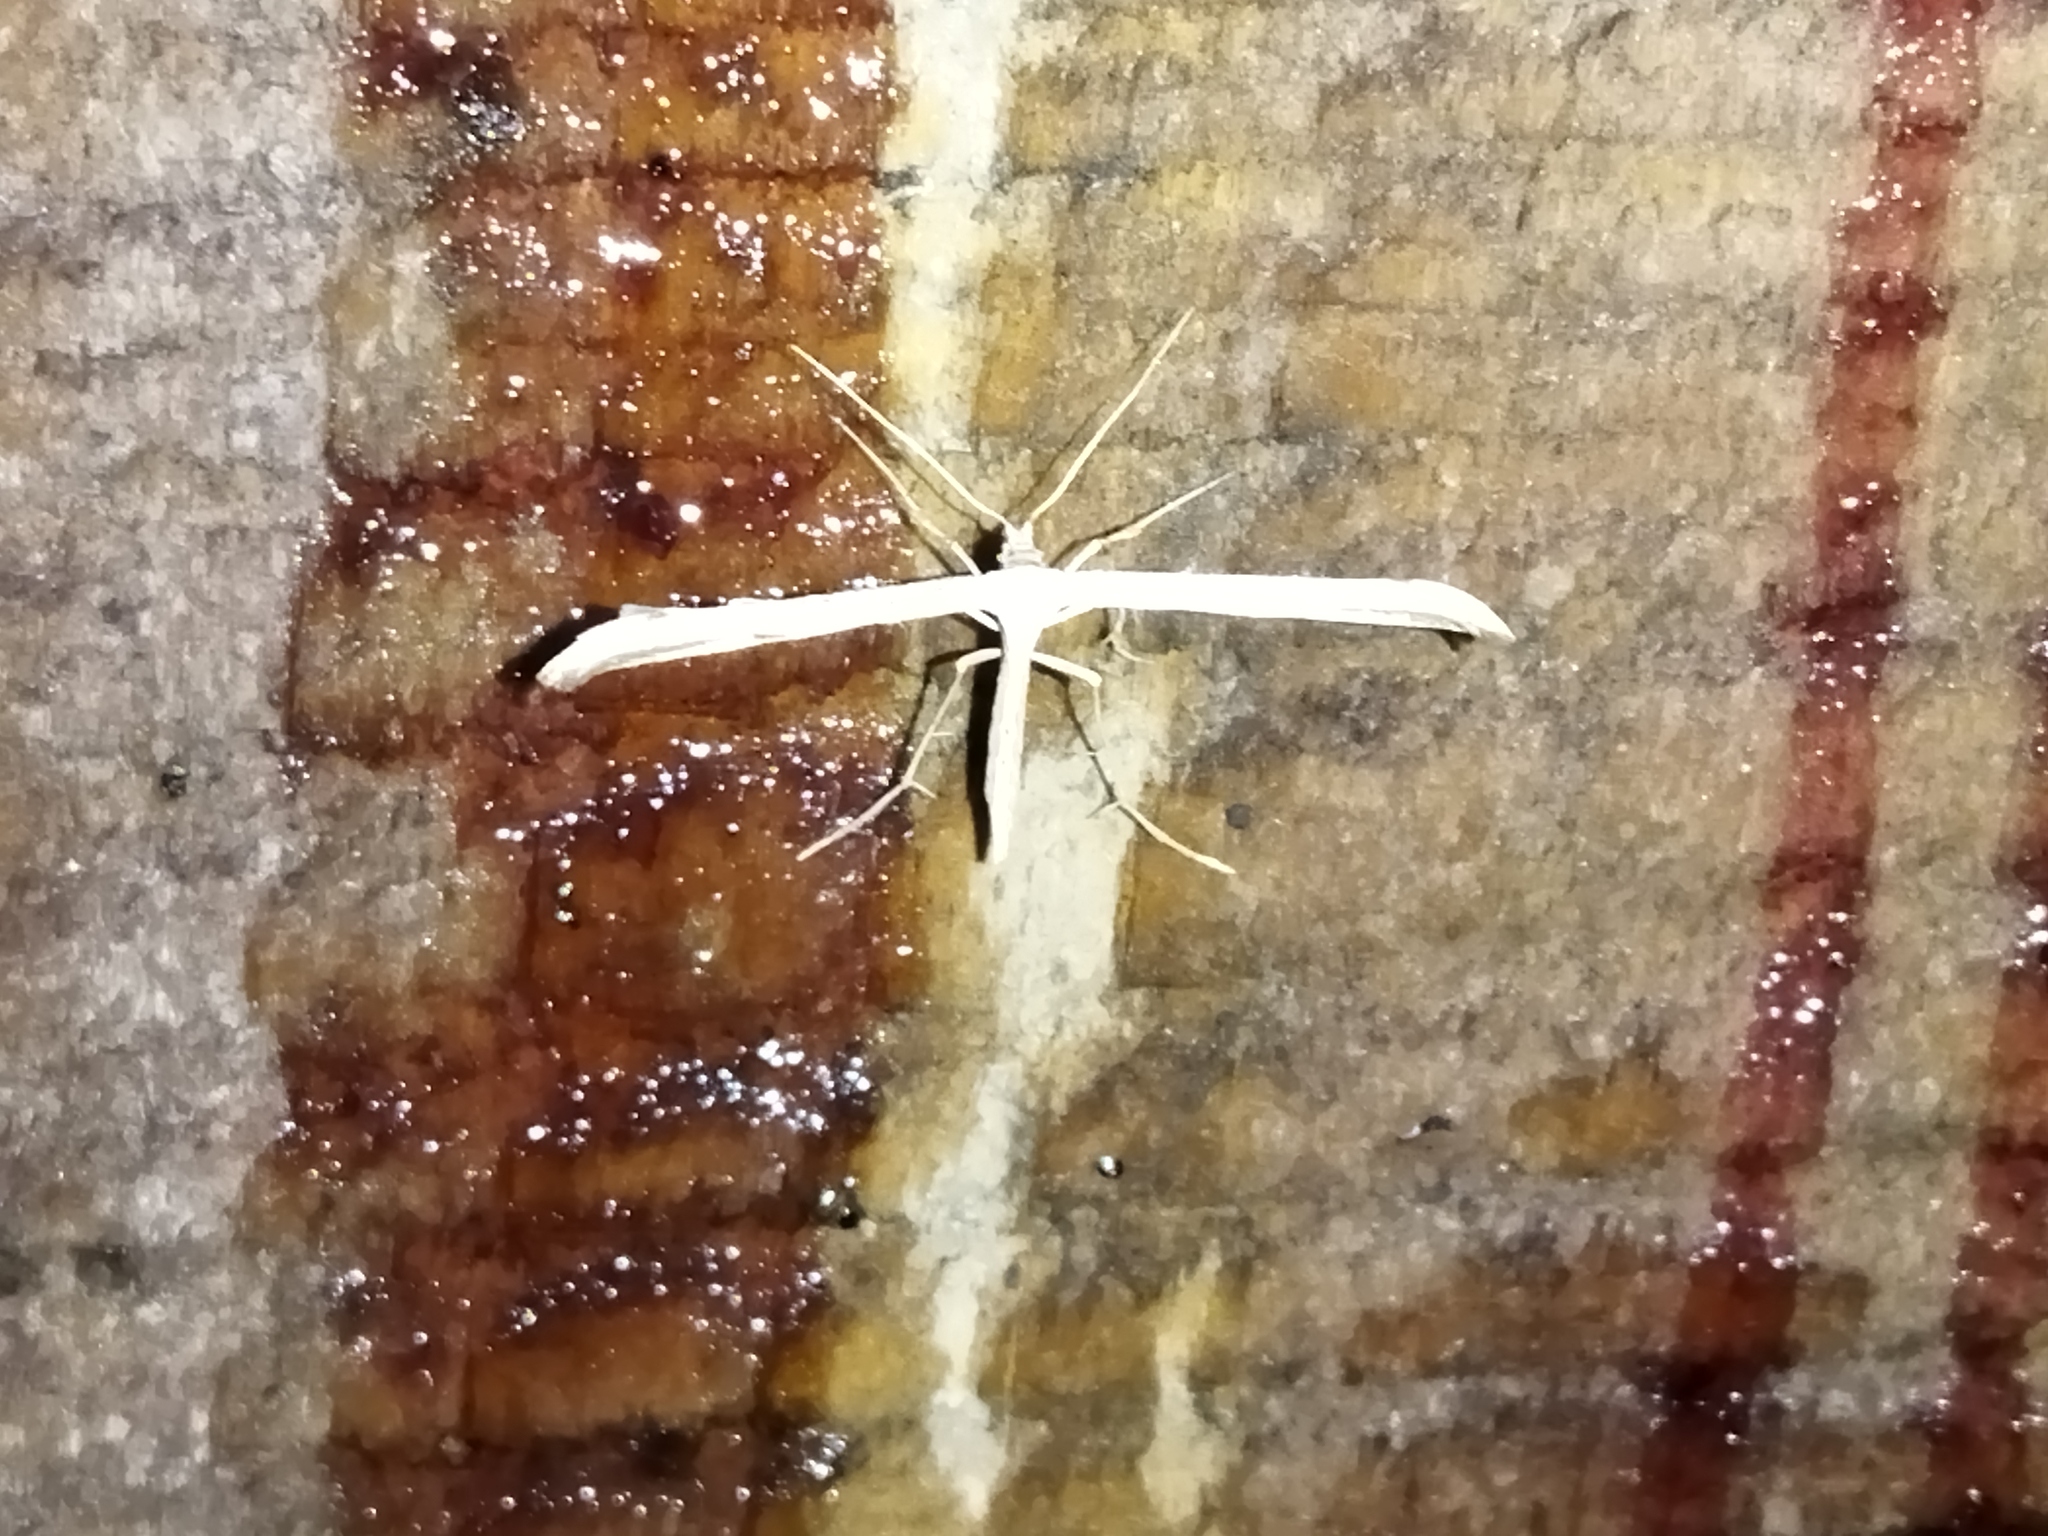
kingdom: Animalia
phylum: Arthropoda
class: Insecta
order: Lepidoptera
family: Pterophoridae
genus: Emmelina
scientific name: Emmelina monodactyla
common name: Common plume
